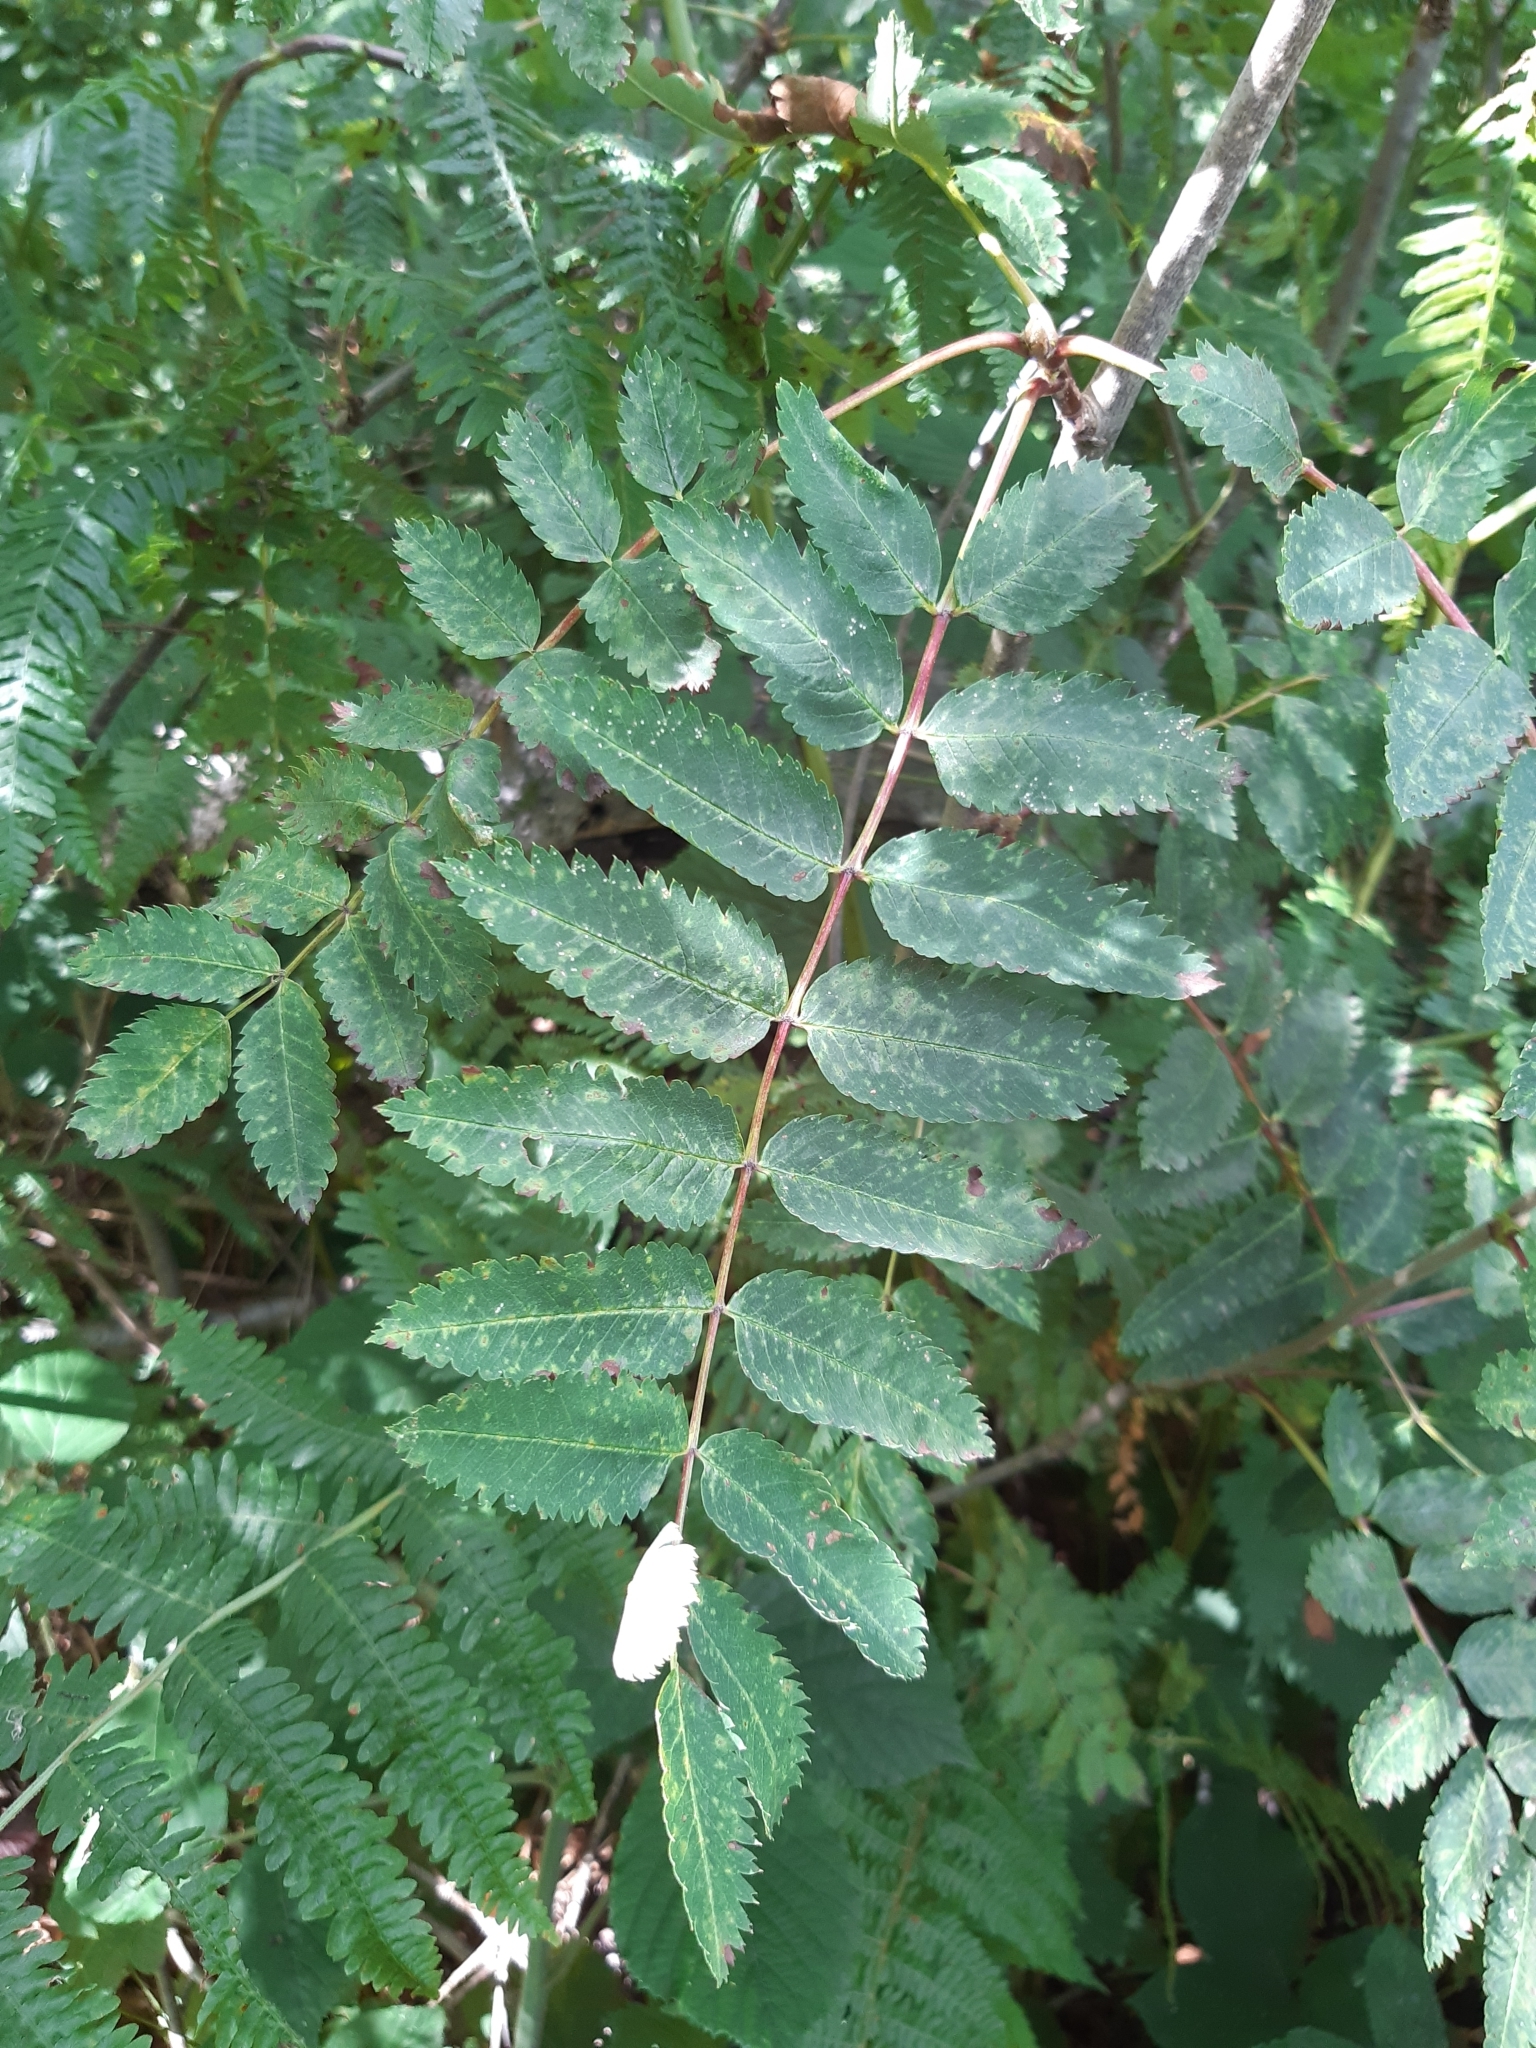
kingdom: Plantae
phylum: Tracheophyta
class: Magnoliopsida
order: Rosales
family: Rosaceae
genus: Sorbus
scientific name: Sorbus aucuparia
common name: Rowan
